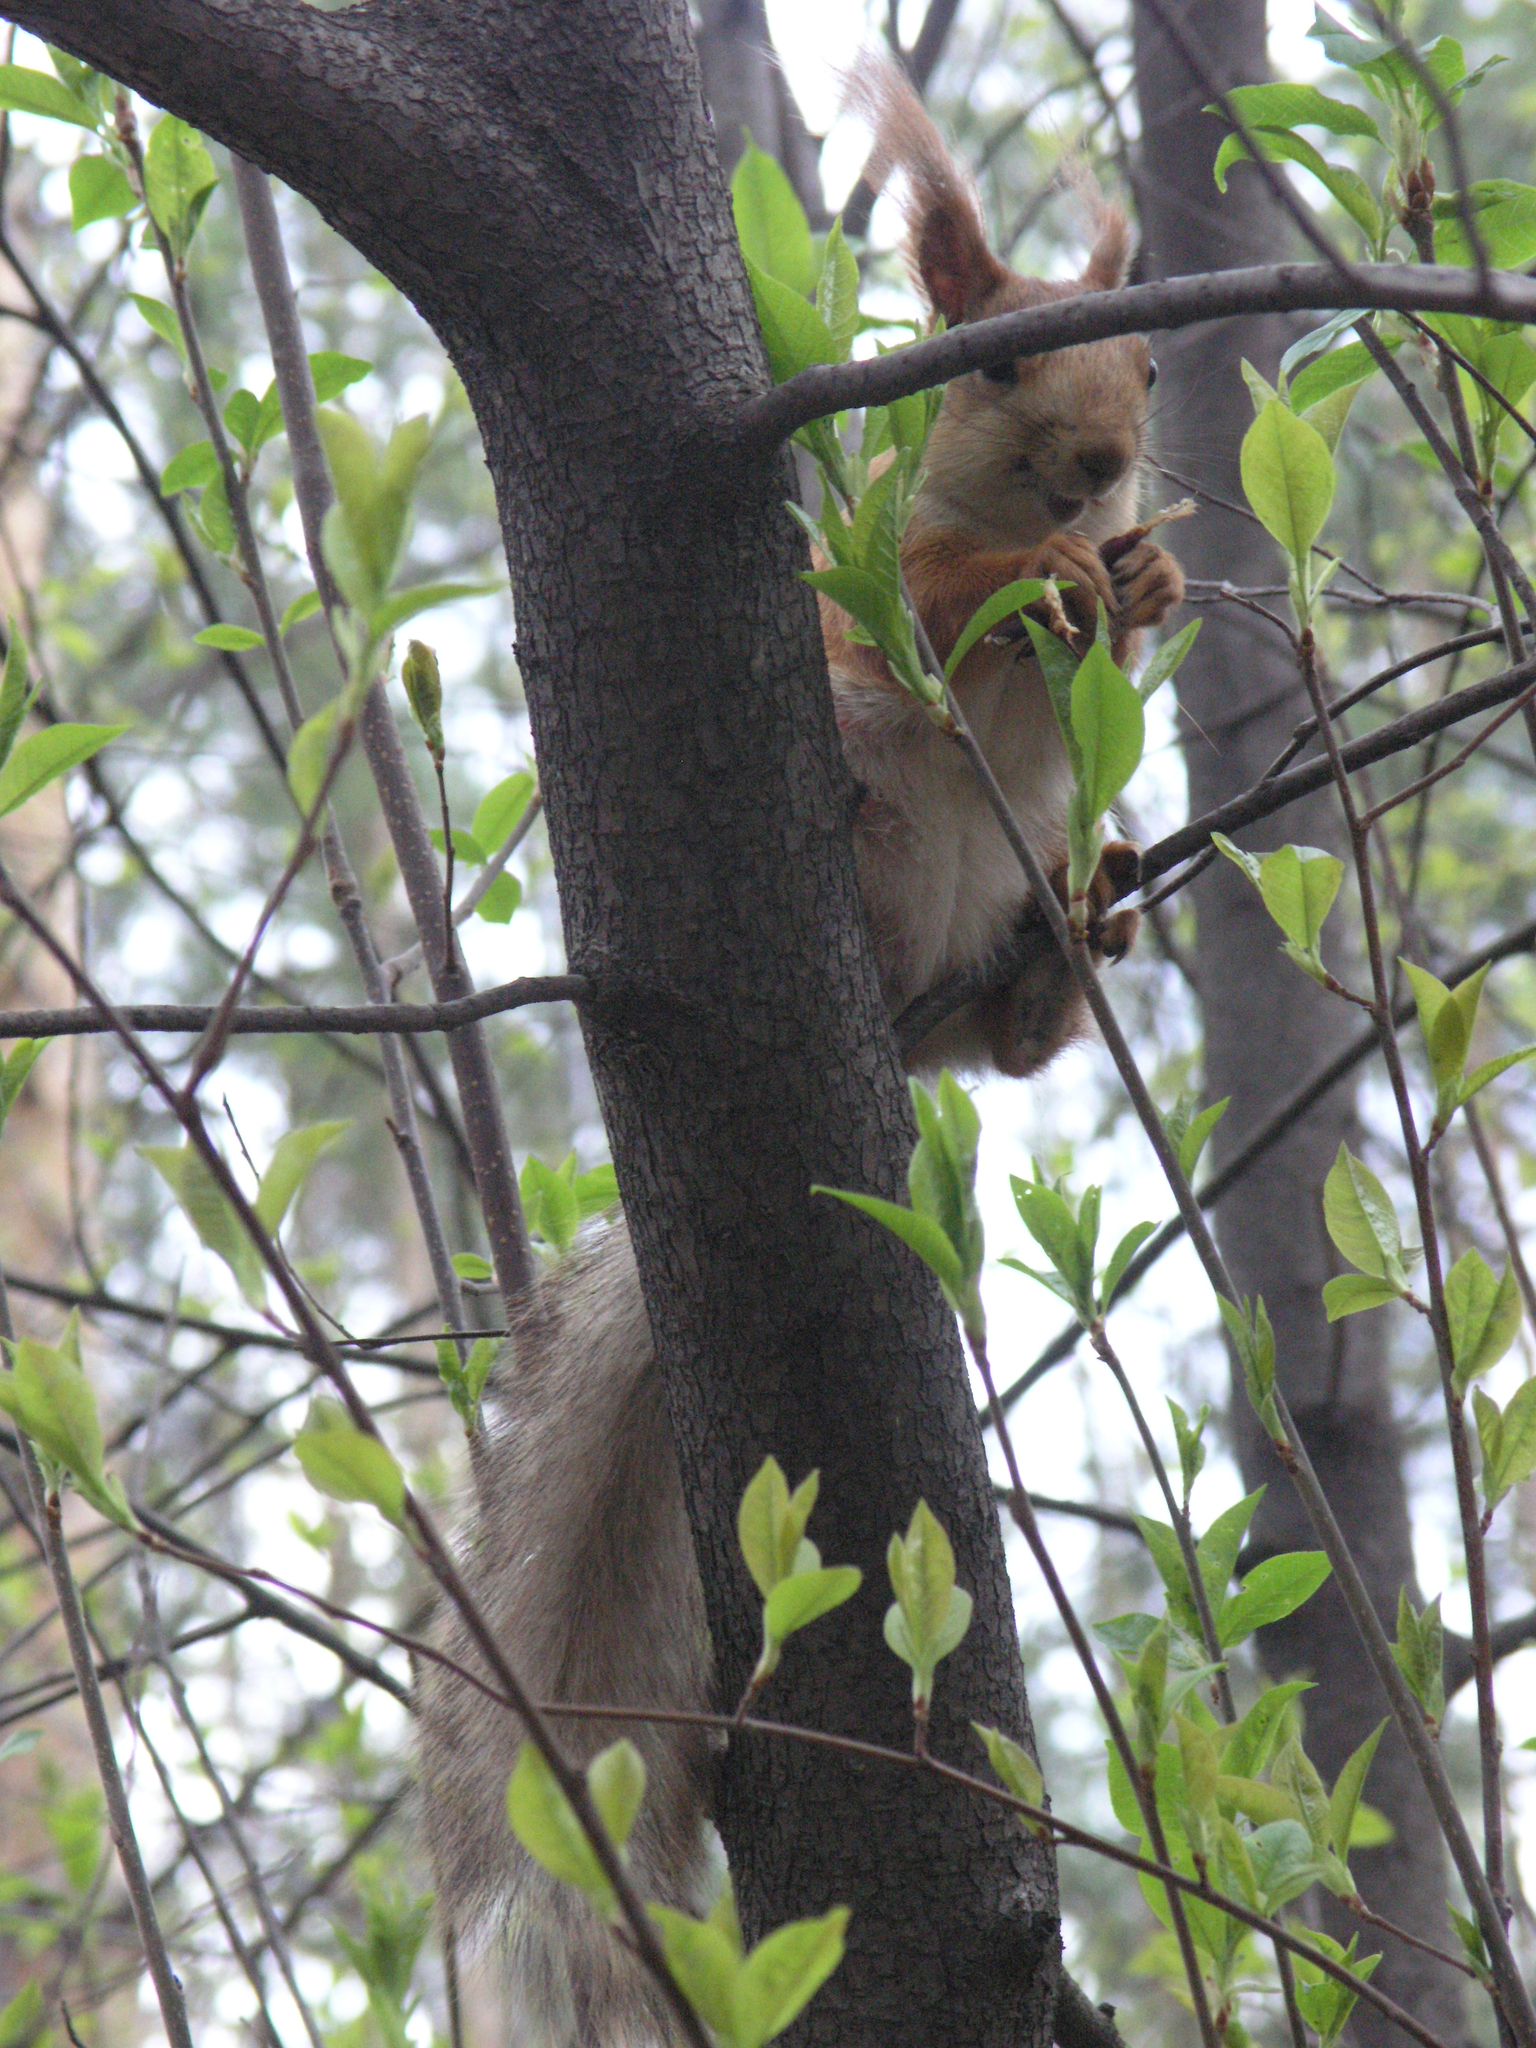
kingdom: Animalia
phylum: Chordata
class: Mammalia
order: Rodentia
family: Sciuridae
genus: Sciurus
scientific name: Sciurus vulgaris
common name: Eurasian red squirrel
